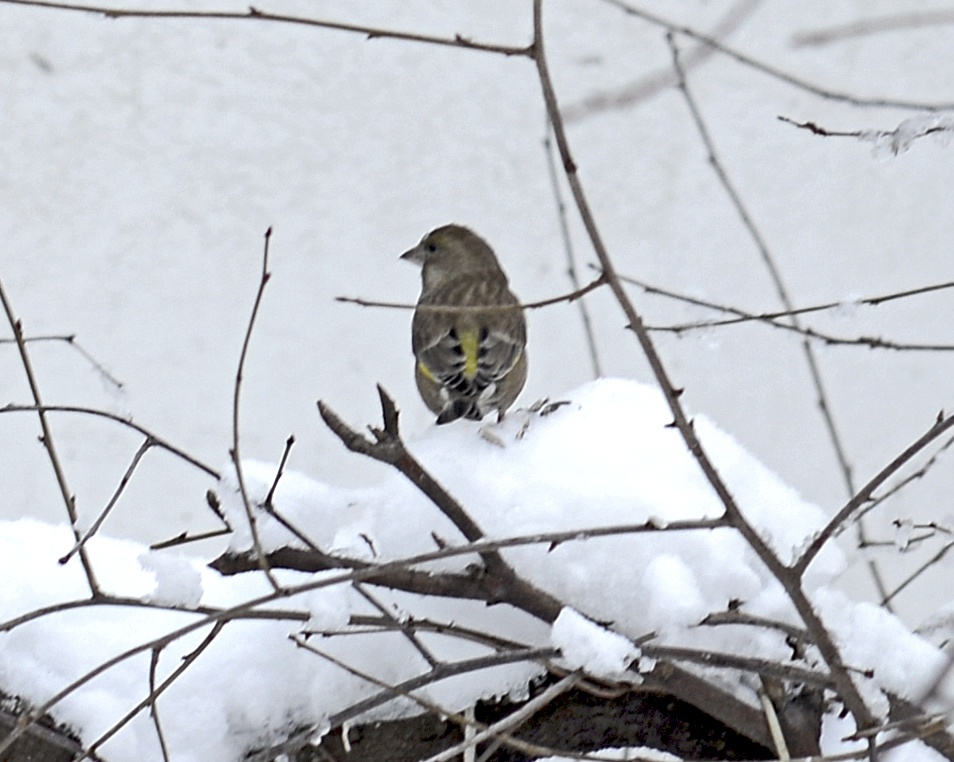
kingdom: Plantae
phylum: Tracheophyta
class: Liliopsida
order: Poales
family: Poaceae
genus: Chloris
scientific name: Chloris chloris
